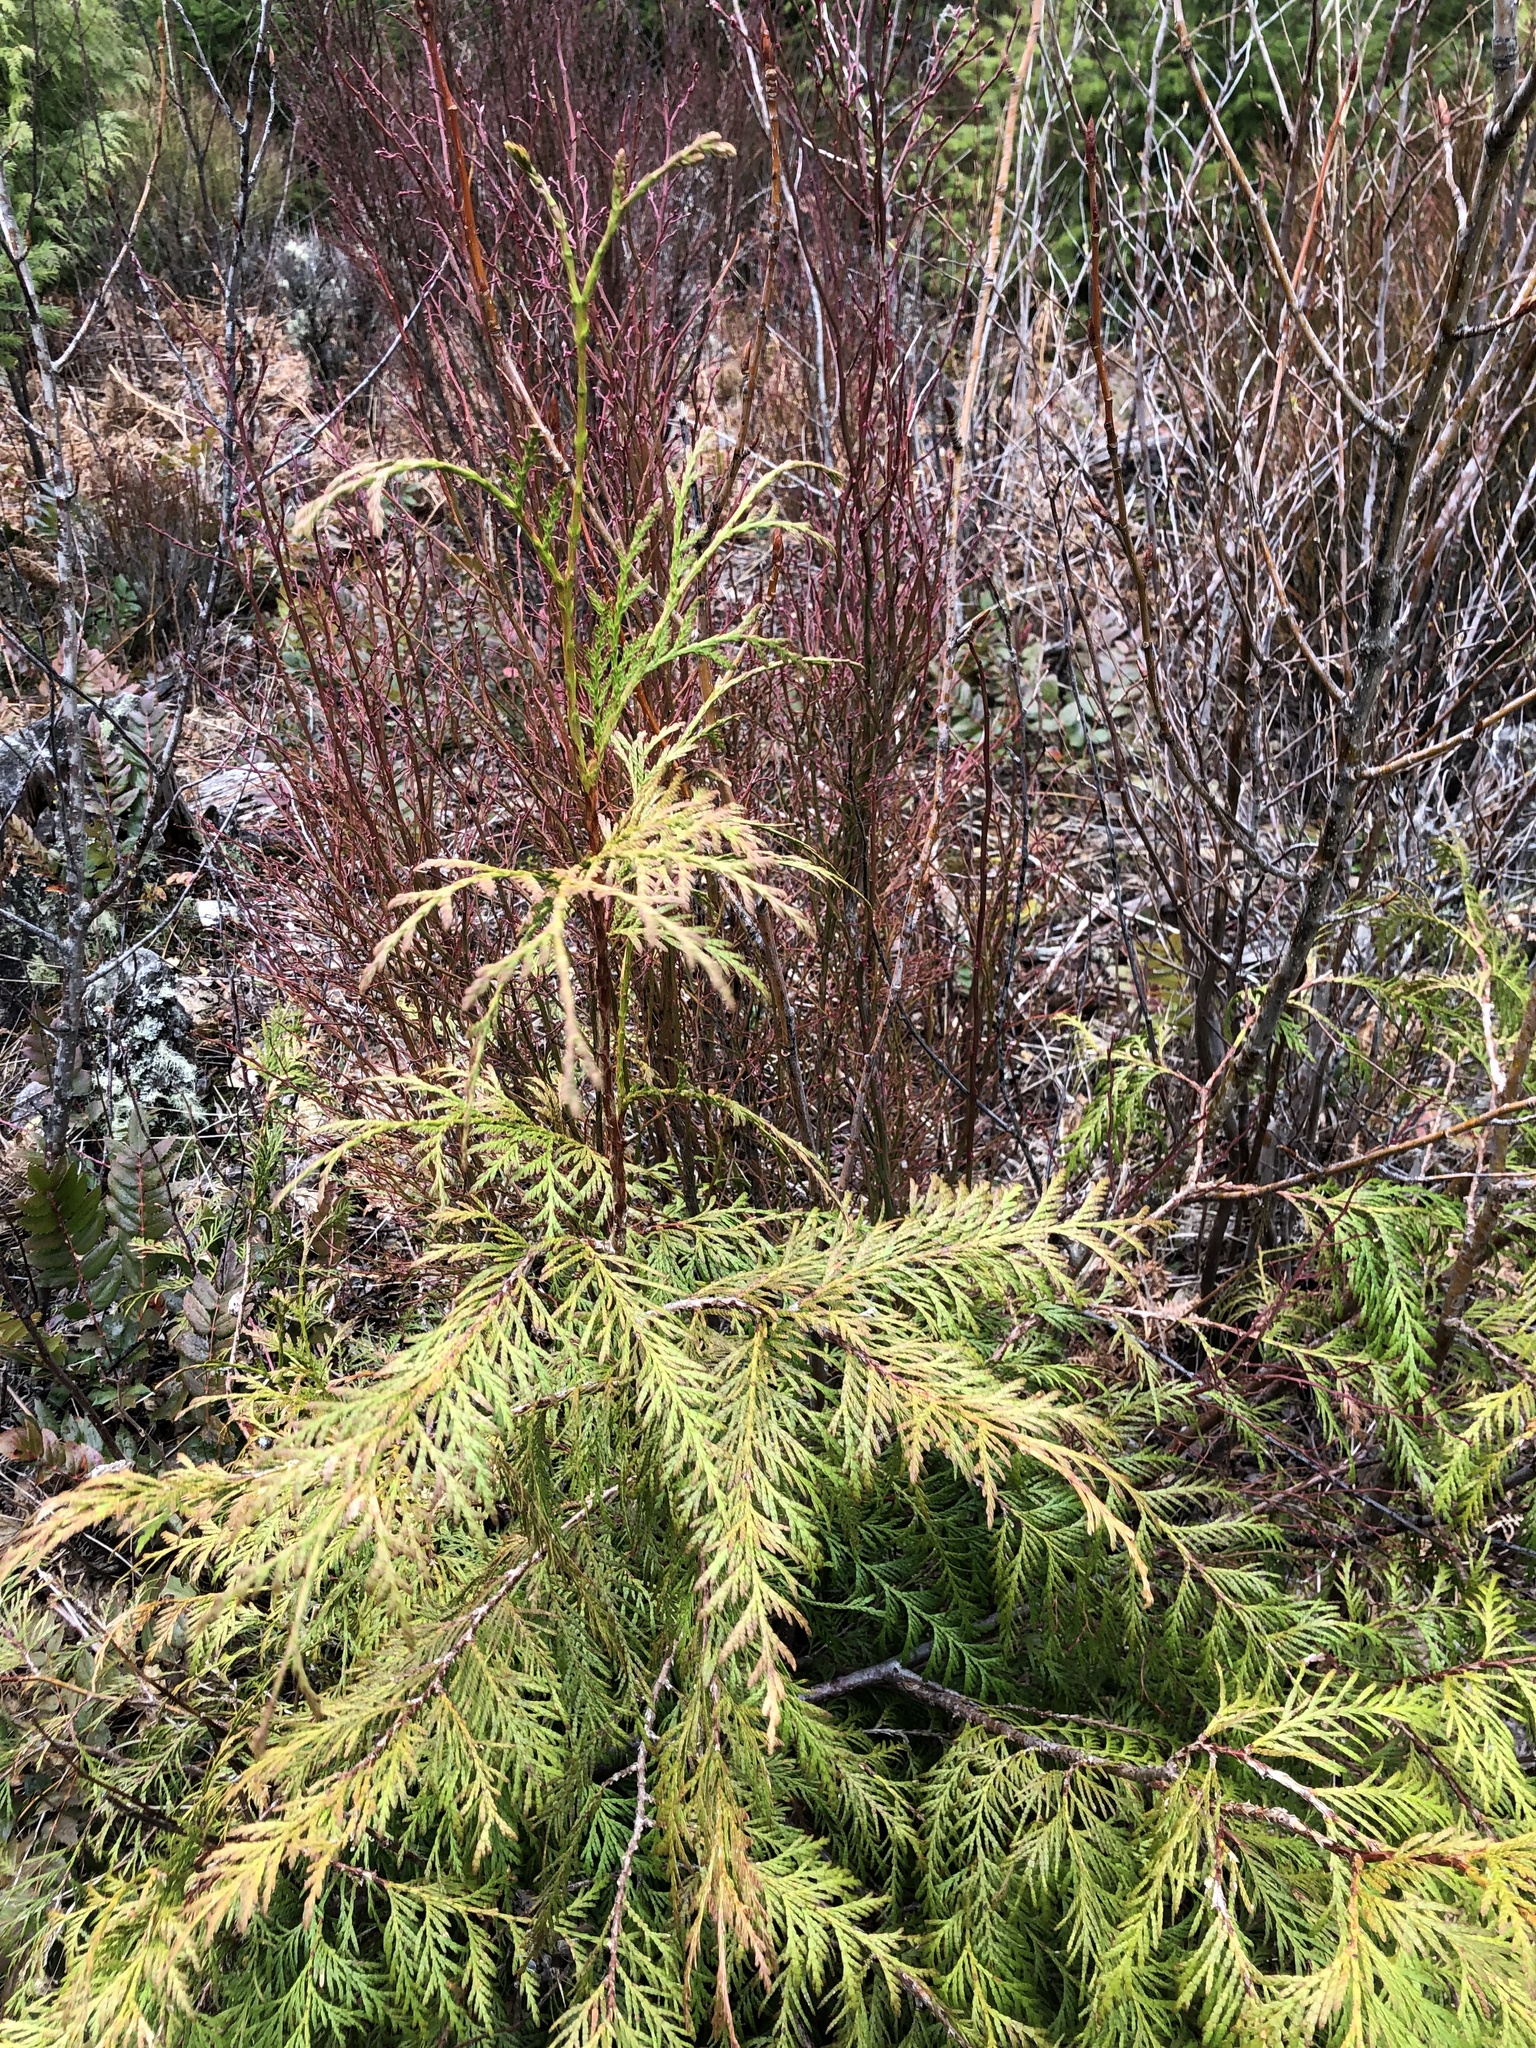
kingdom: Plantae
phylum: Tracheophyta
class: Pinopsida
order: Pinales
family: Cupressaceae
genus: Thuja
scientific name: Thuja plicata
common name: Western red-cedar
